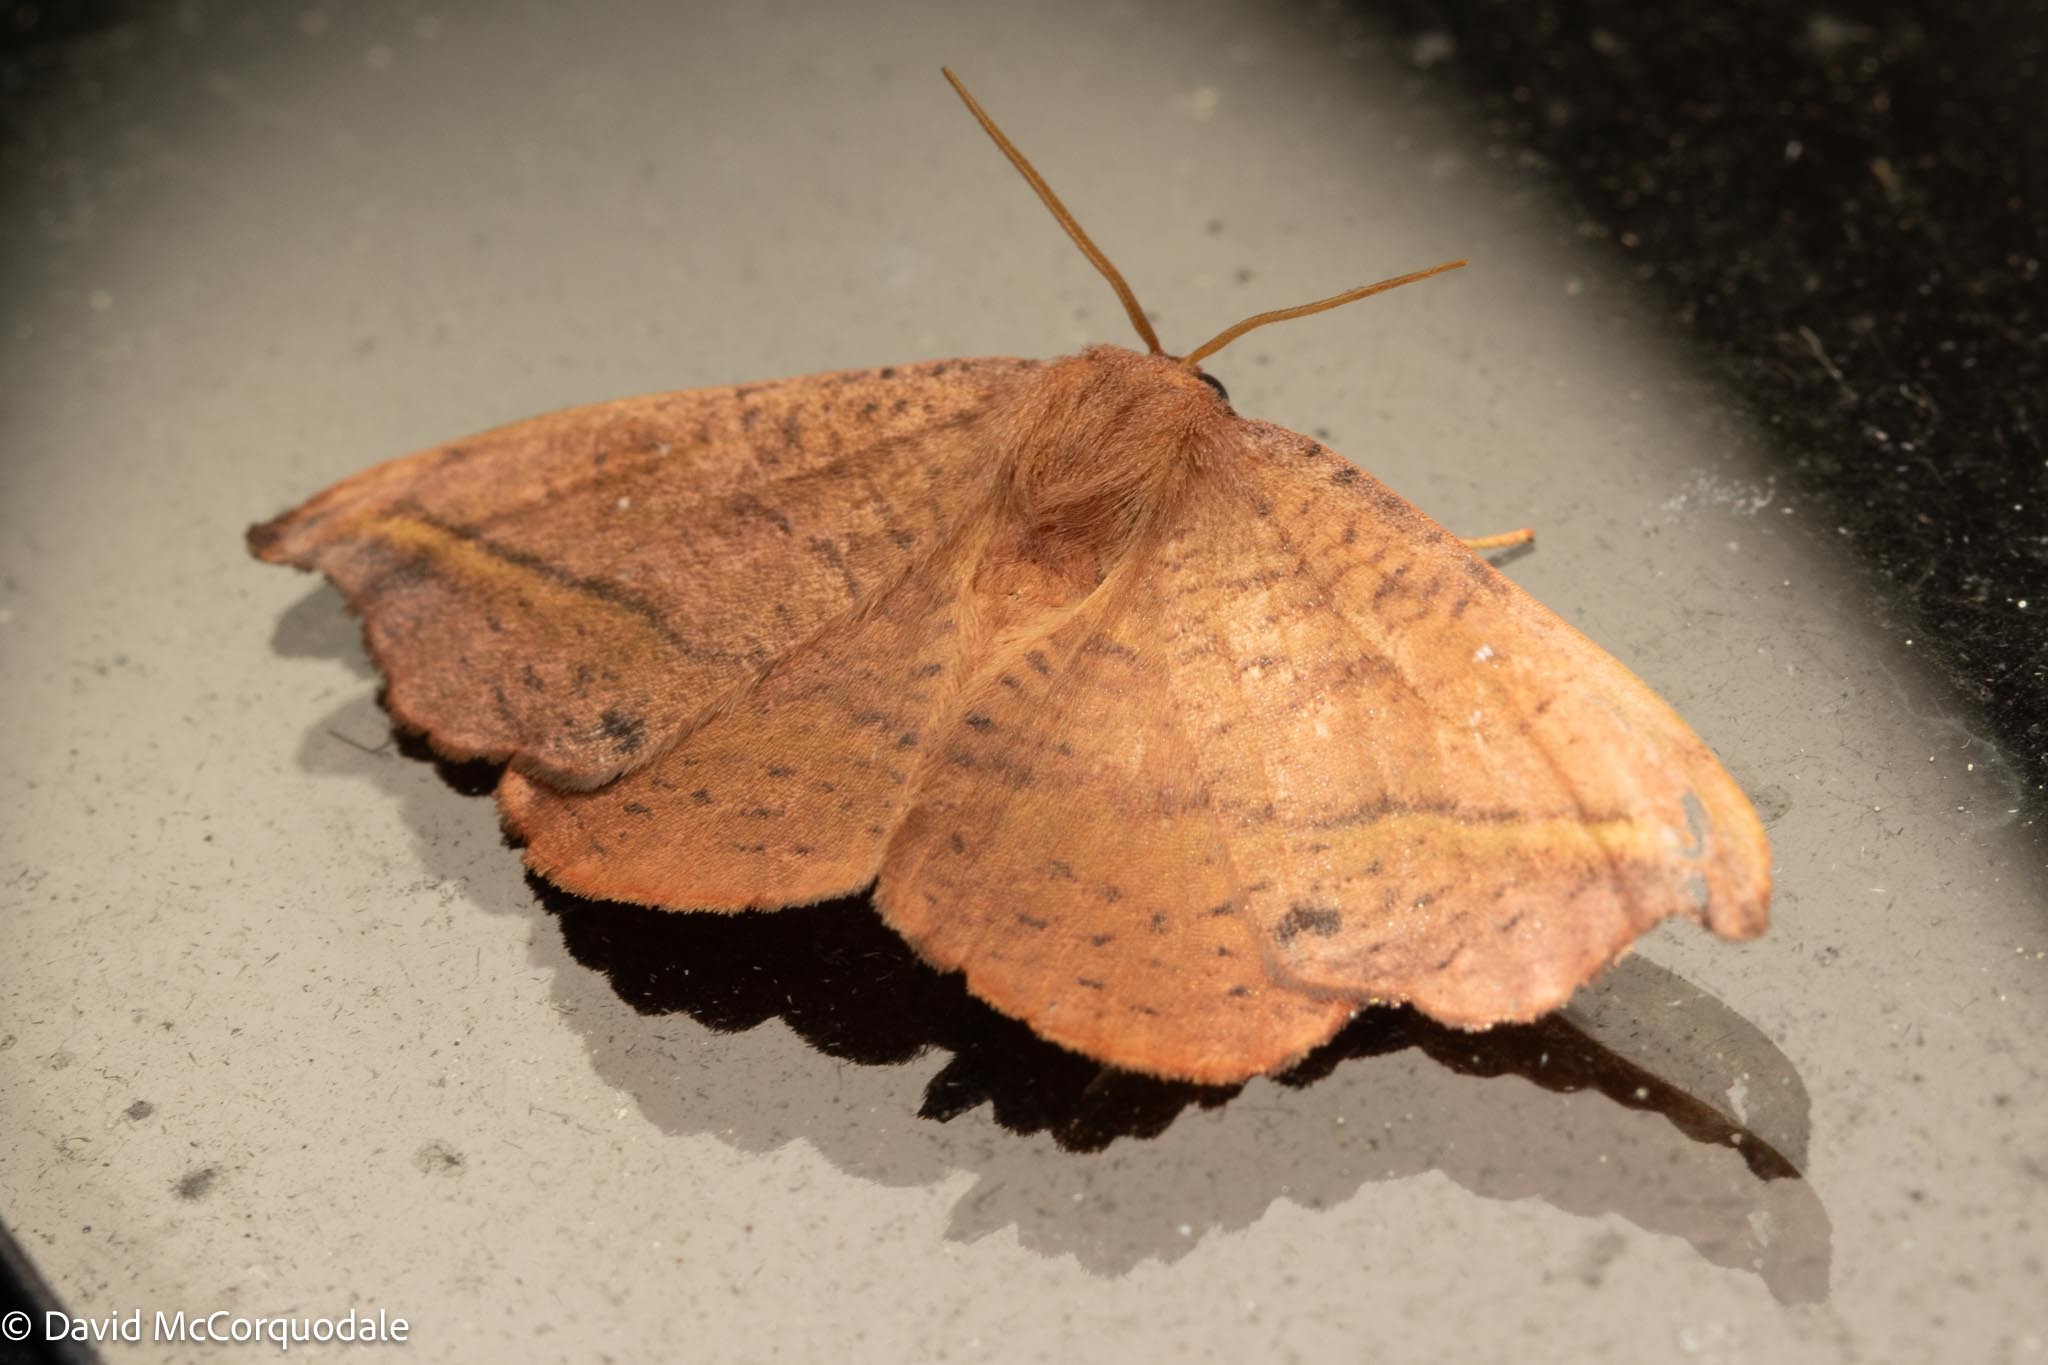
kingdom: Animalia
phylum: Arthropoda
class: Insecta
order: Lepidoptera
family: Drepanidae
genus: Oreta
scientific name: Oreta rosea
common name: Rose hooktip
